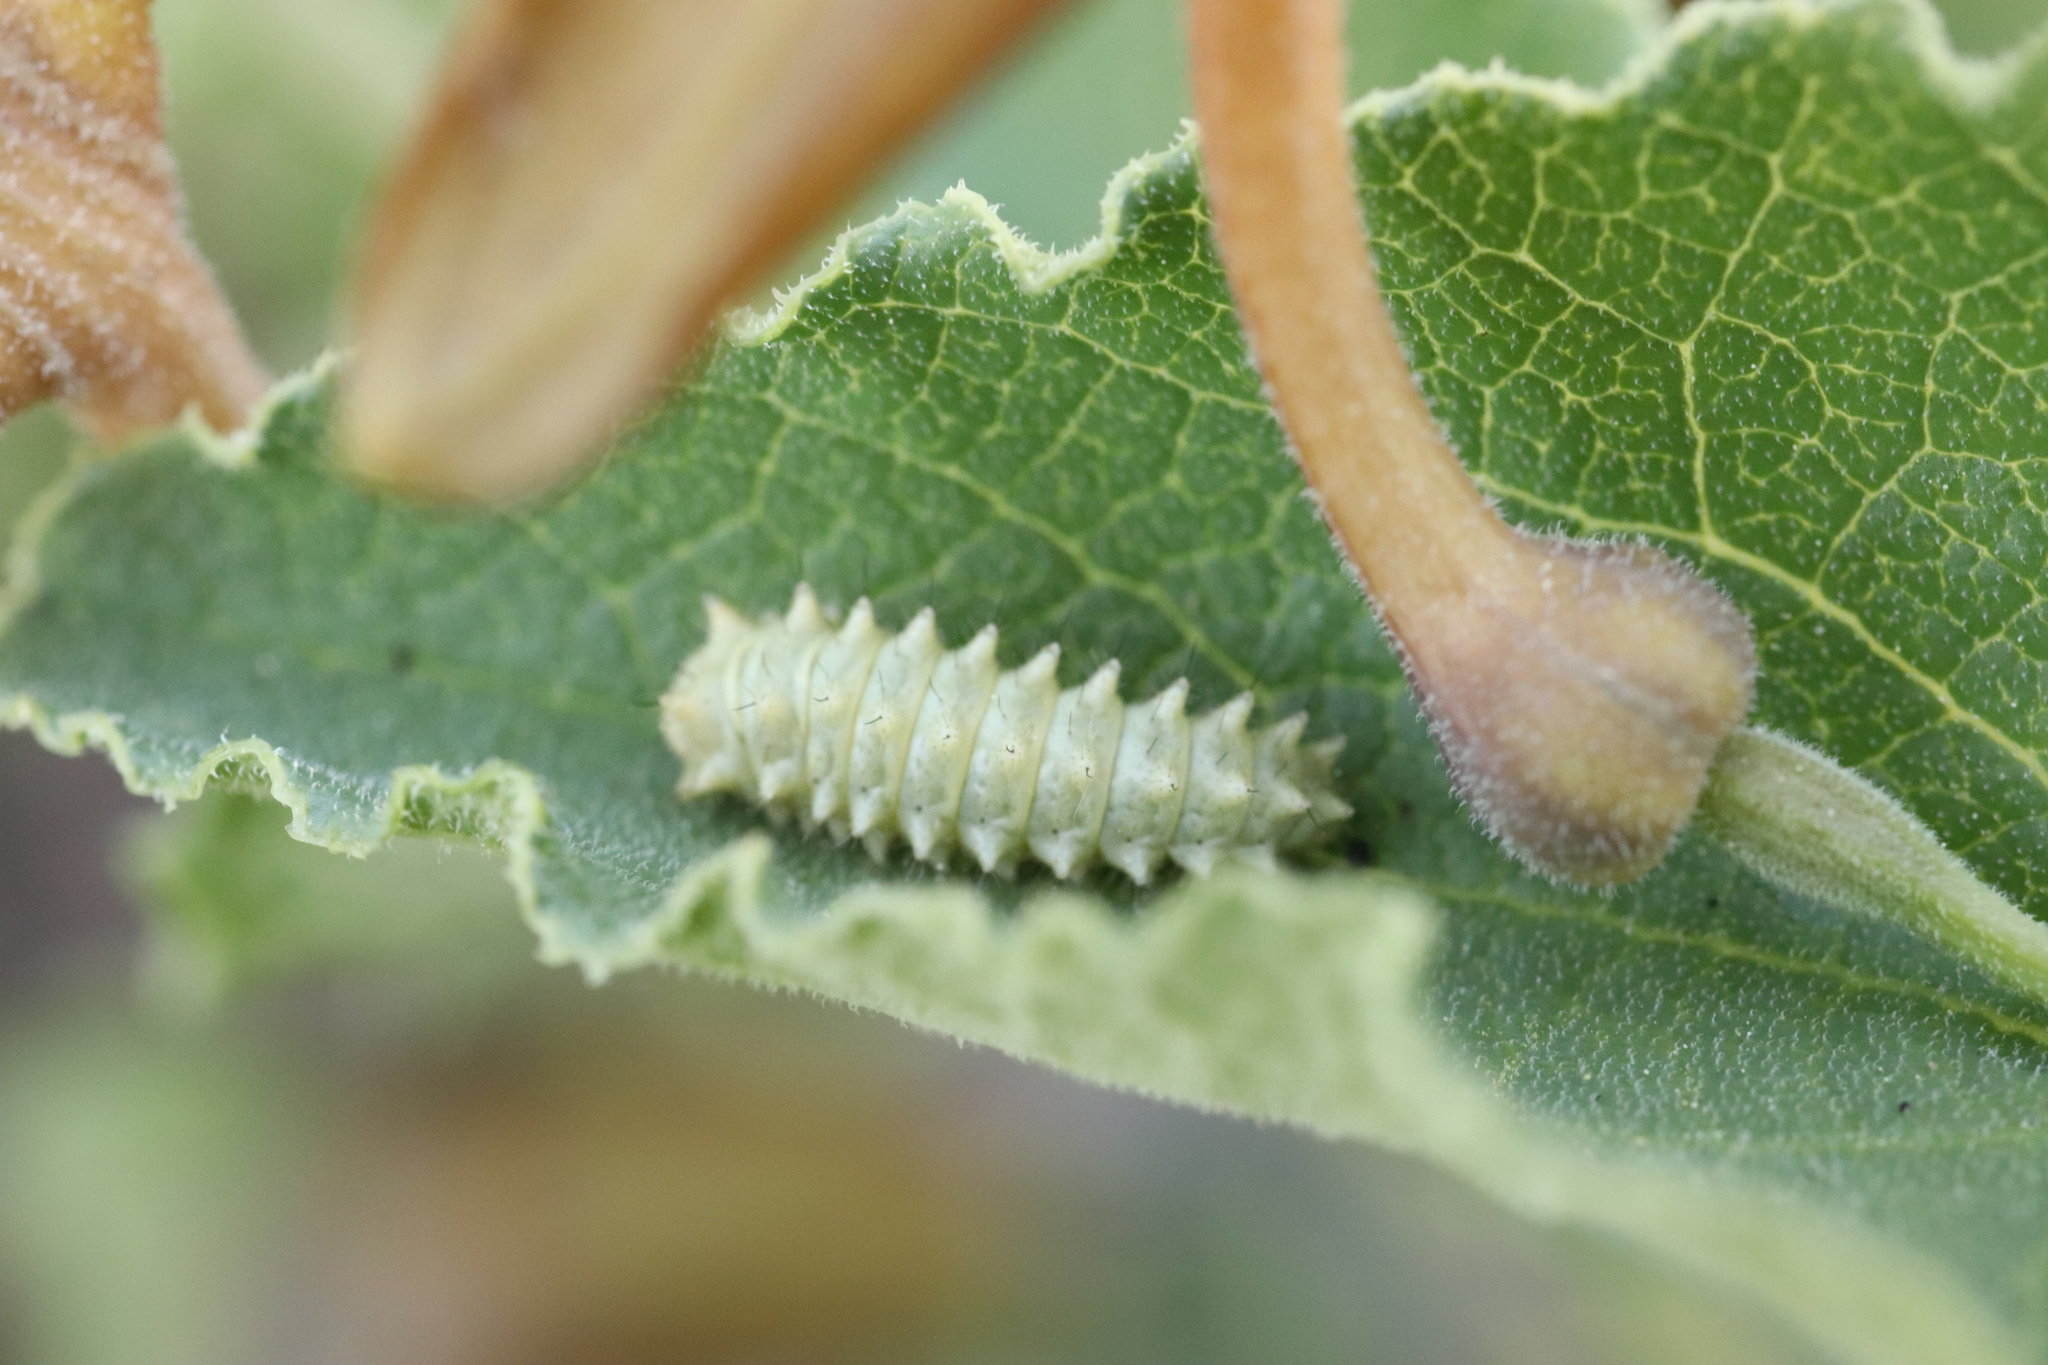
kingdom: Animalia
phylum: Arthropoda
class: Insecta
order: Lepidoptera
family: Papilionidae
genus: Zerynthia
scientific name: Zerynthia rumina
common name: Spanish festoon
